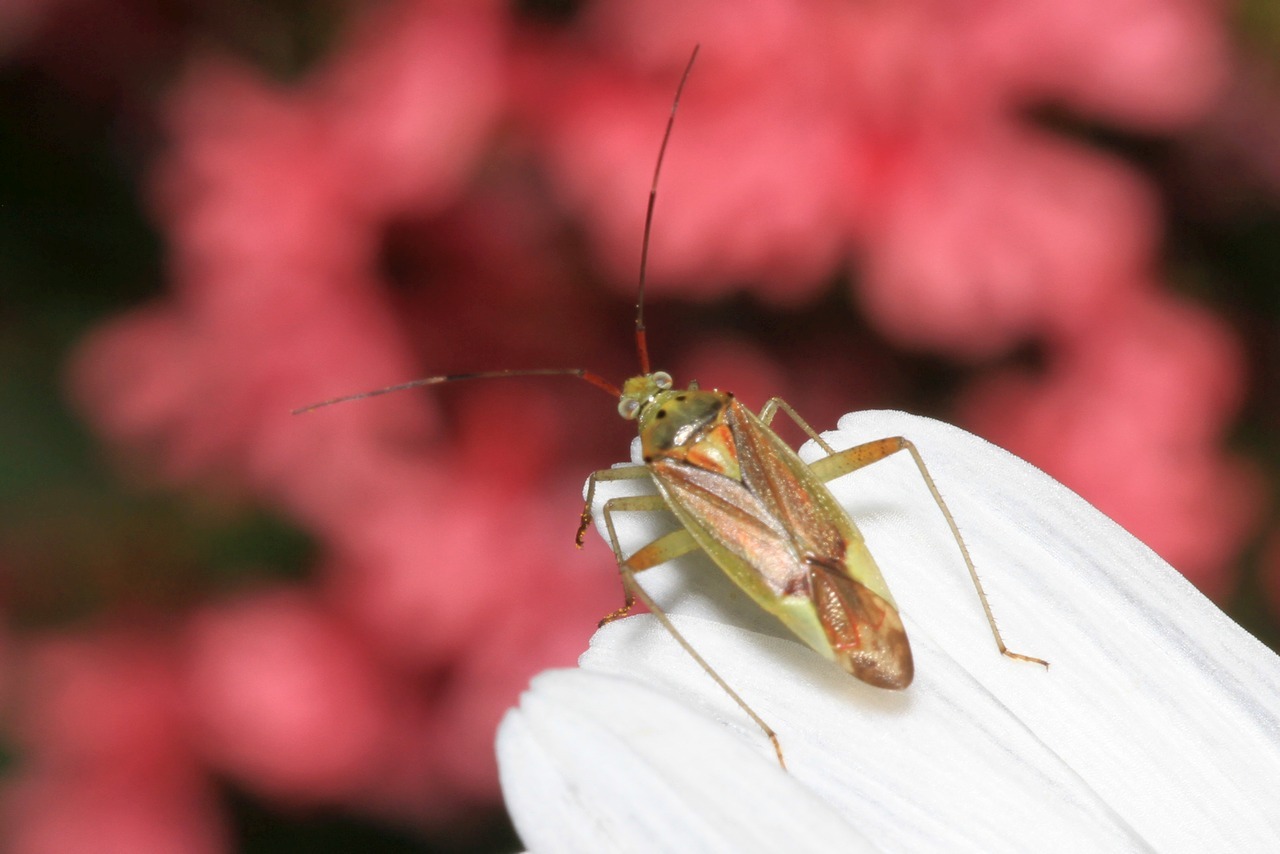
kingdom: Animalia
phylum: Arthropoda
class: Insecta
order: Hemiptera
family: Miridae
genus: Closterotomus
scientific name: Closterotomus trivialis
